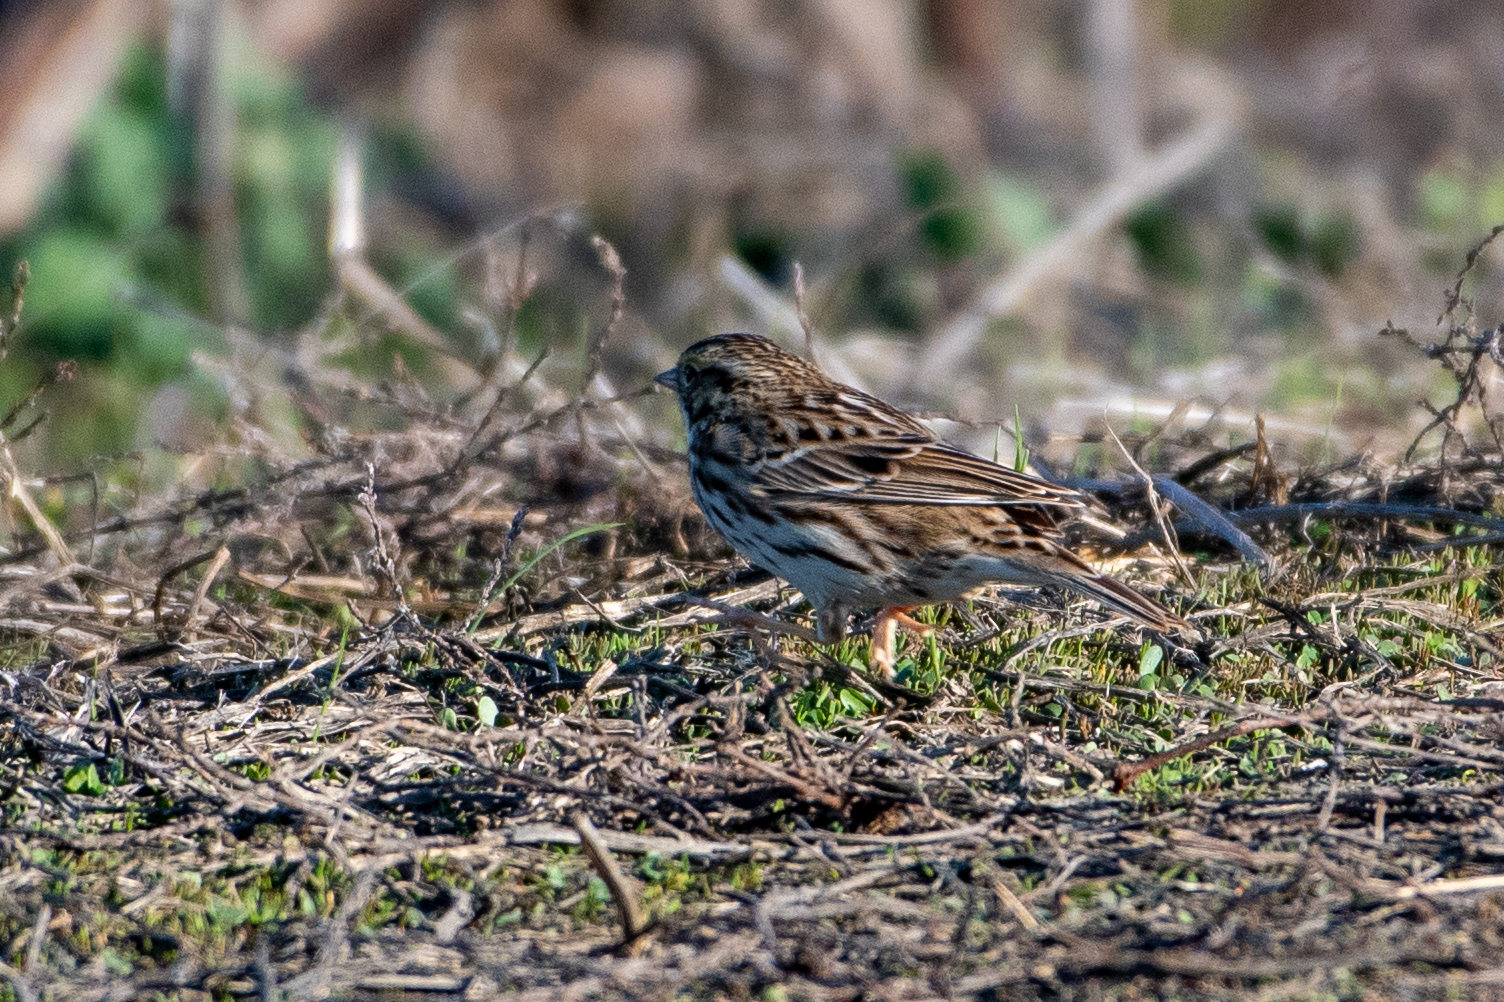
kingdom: Animalia
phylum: Chordata
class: Aves
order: Passeriformes
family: Passerellidae
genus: Passerculus
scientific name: Passerculus sandwichensis
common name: Savannah sparrow
